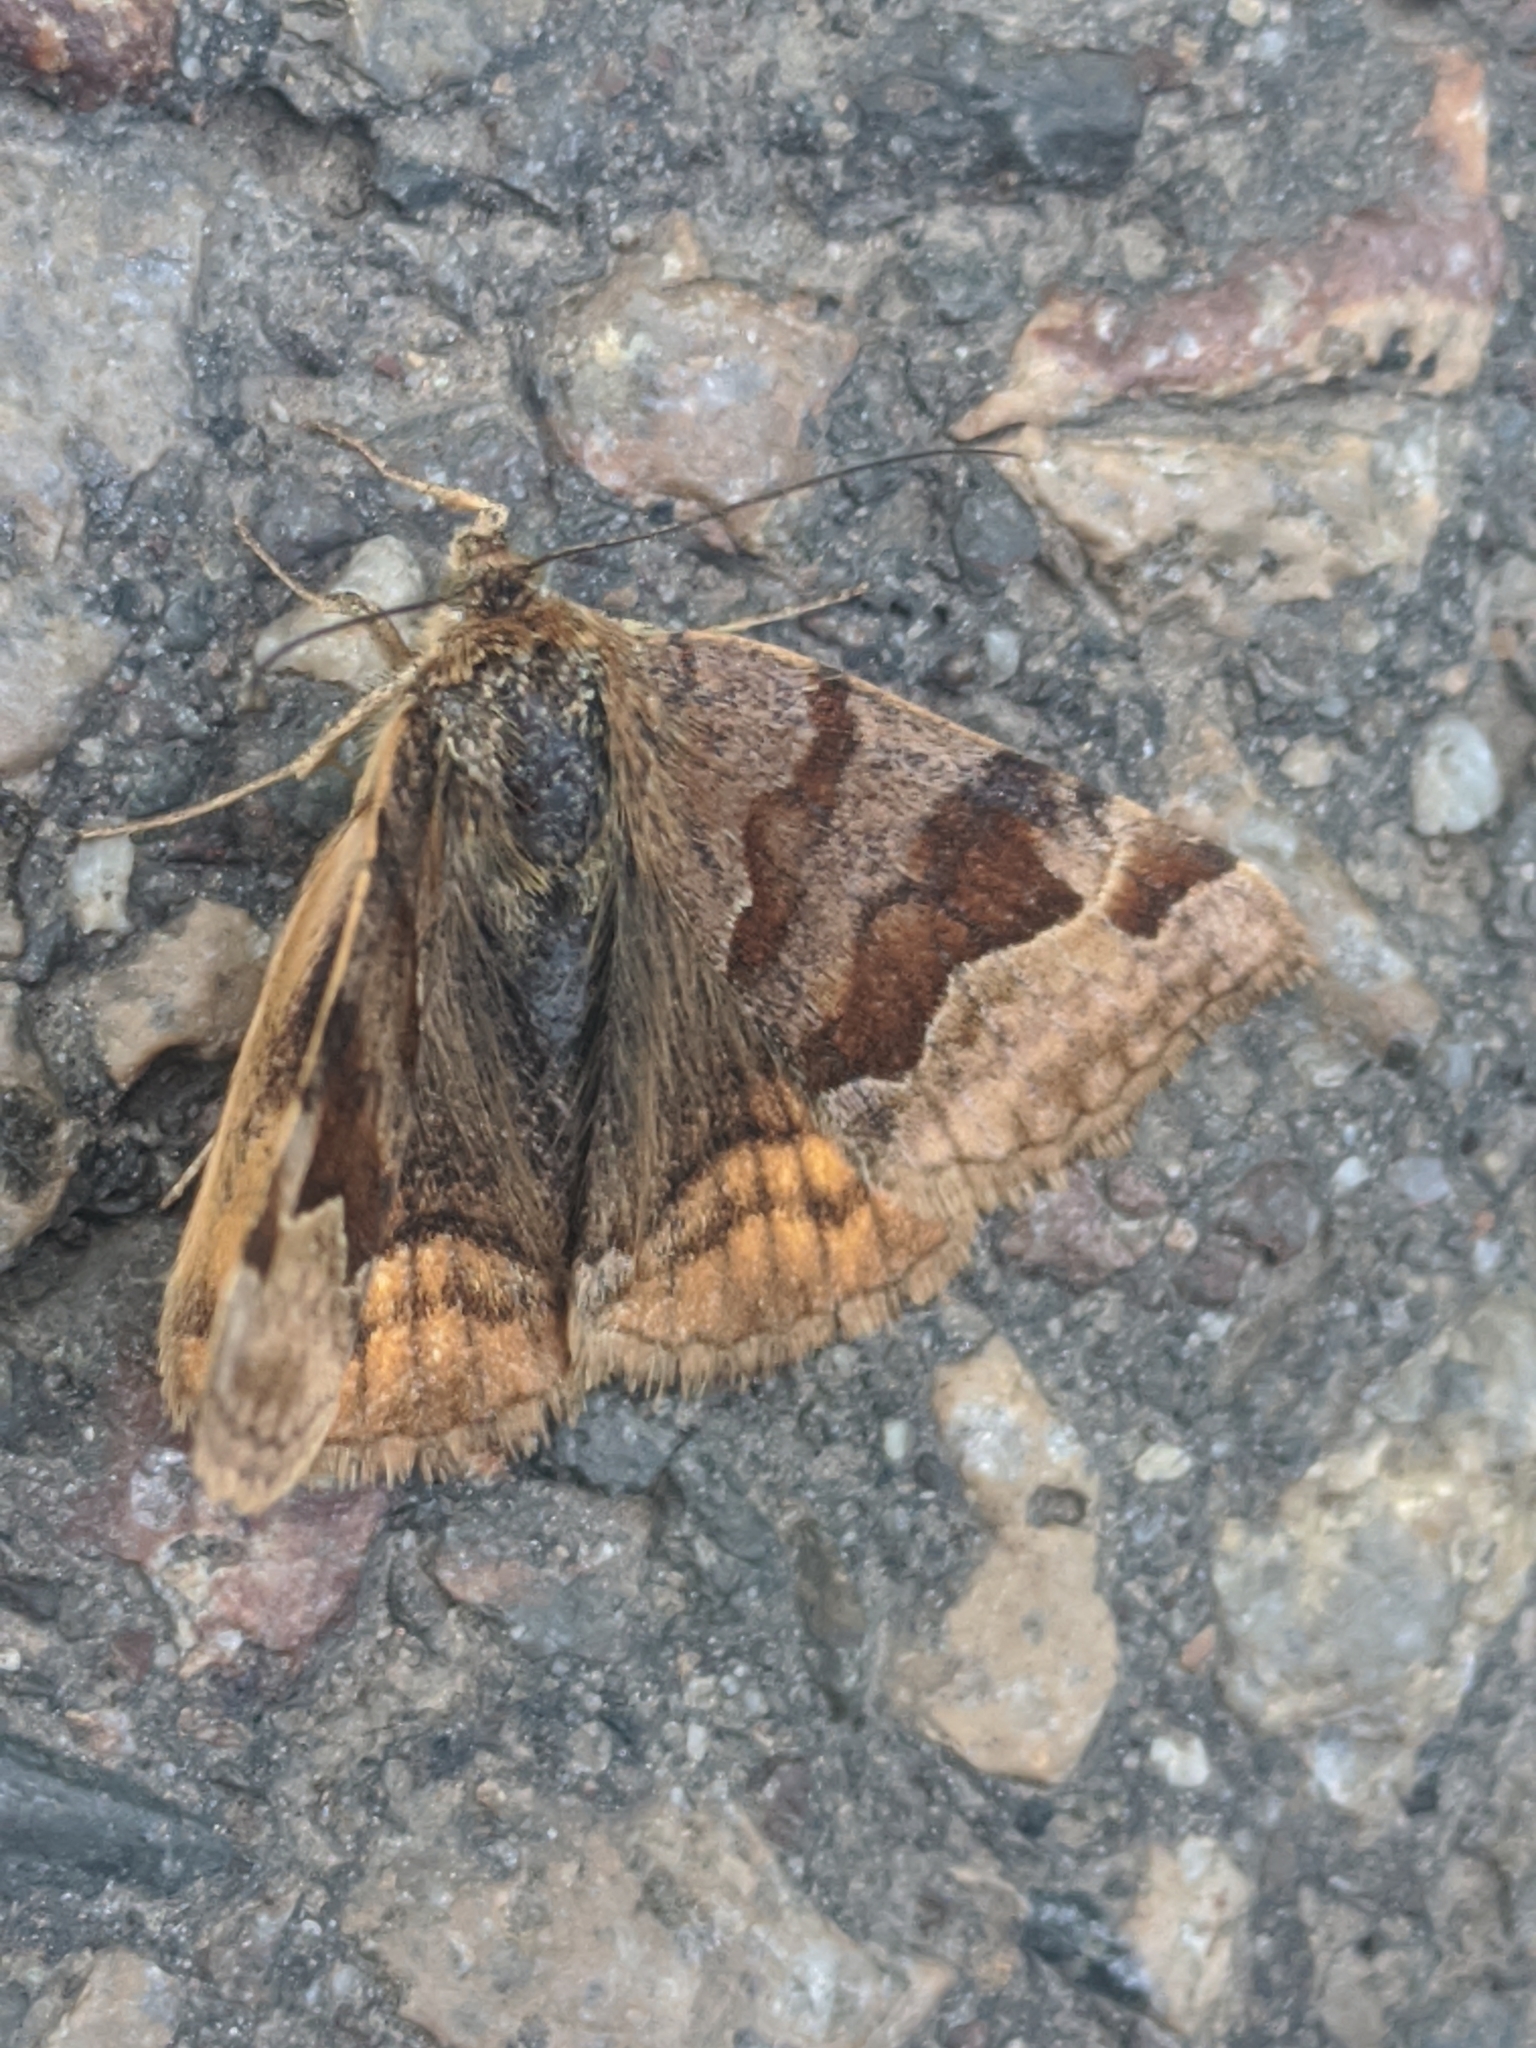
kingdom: Animalia
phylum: Arthropoda
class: Insecta
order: Lepidoptera
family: Erebidae
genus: Euclidia
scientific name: Euclidia glyphica
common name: Burnet companion
